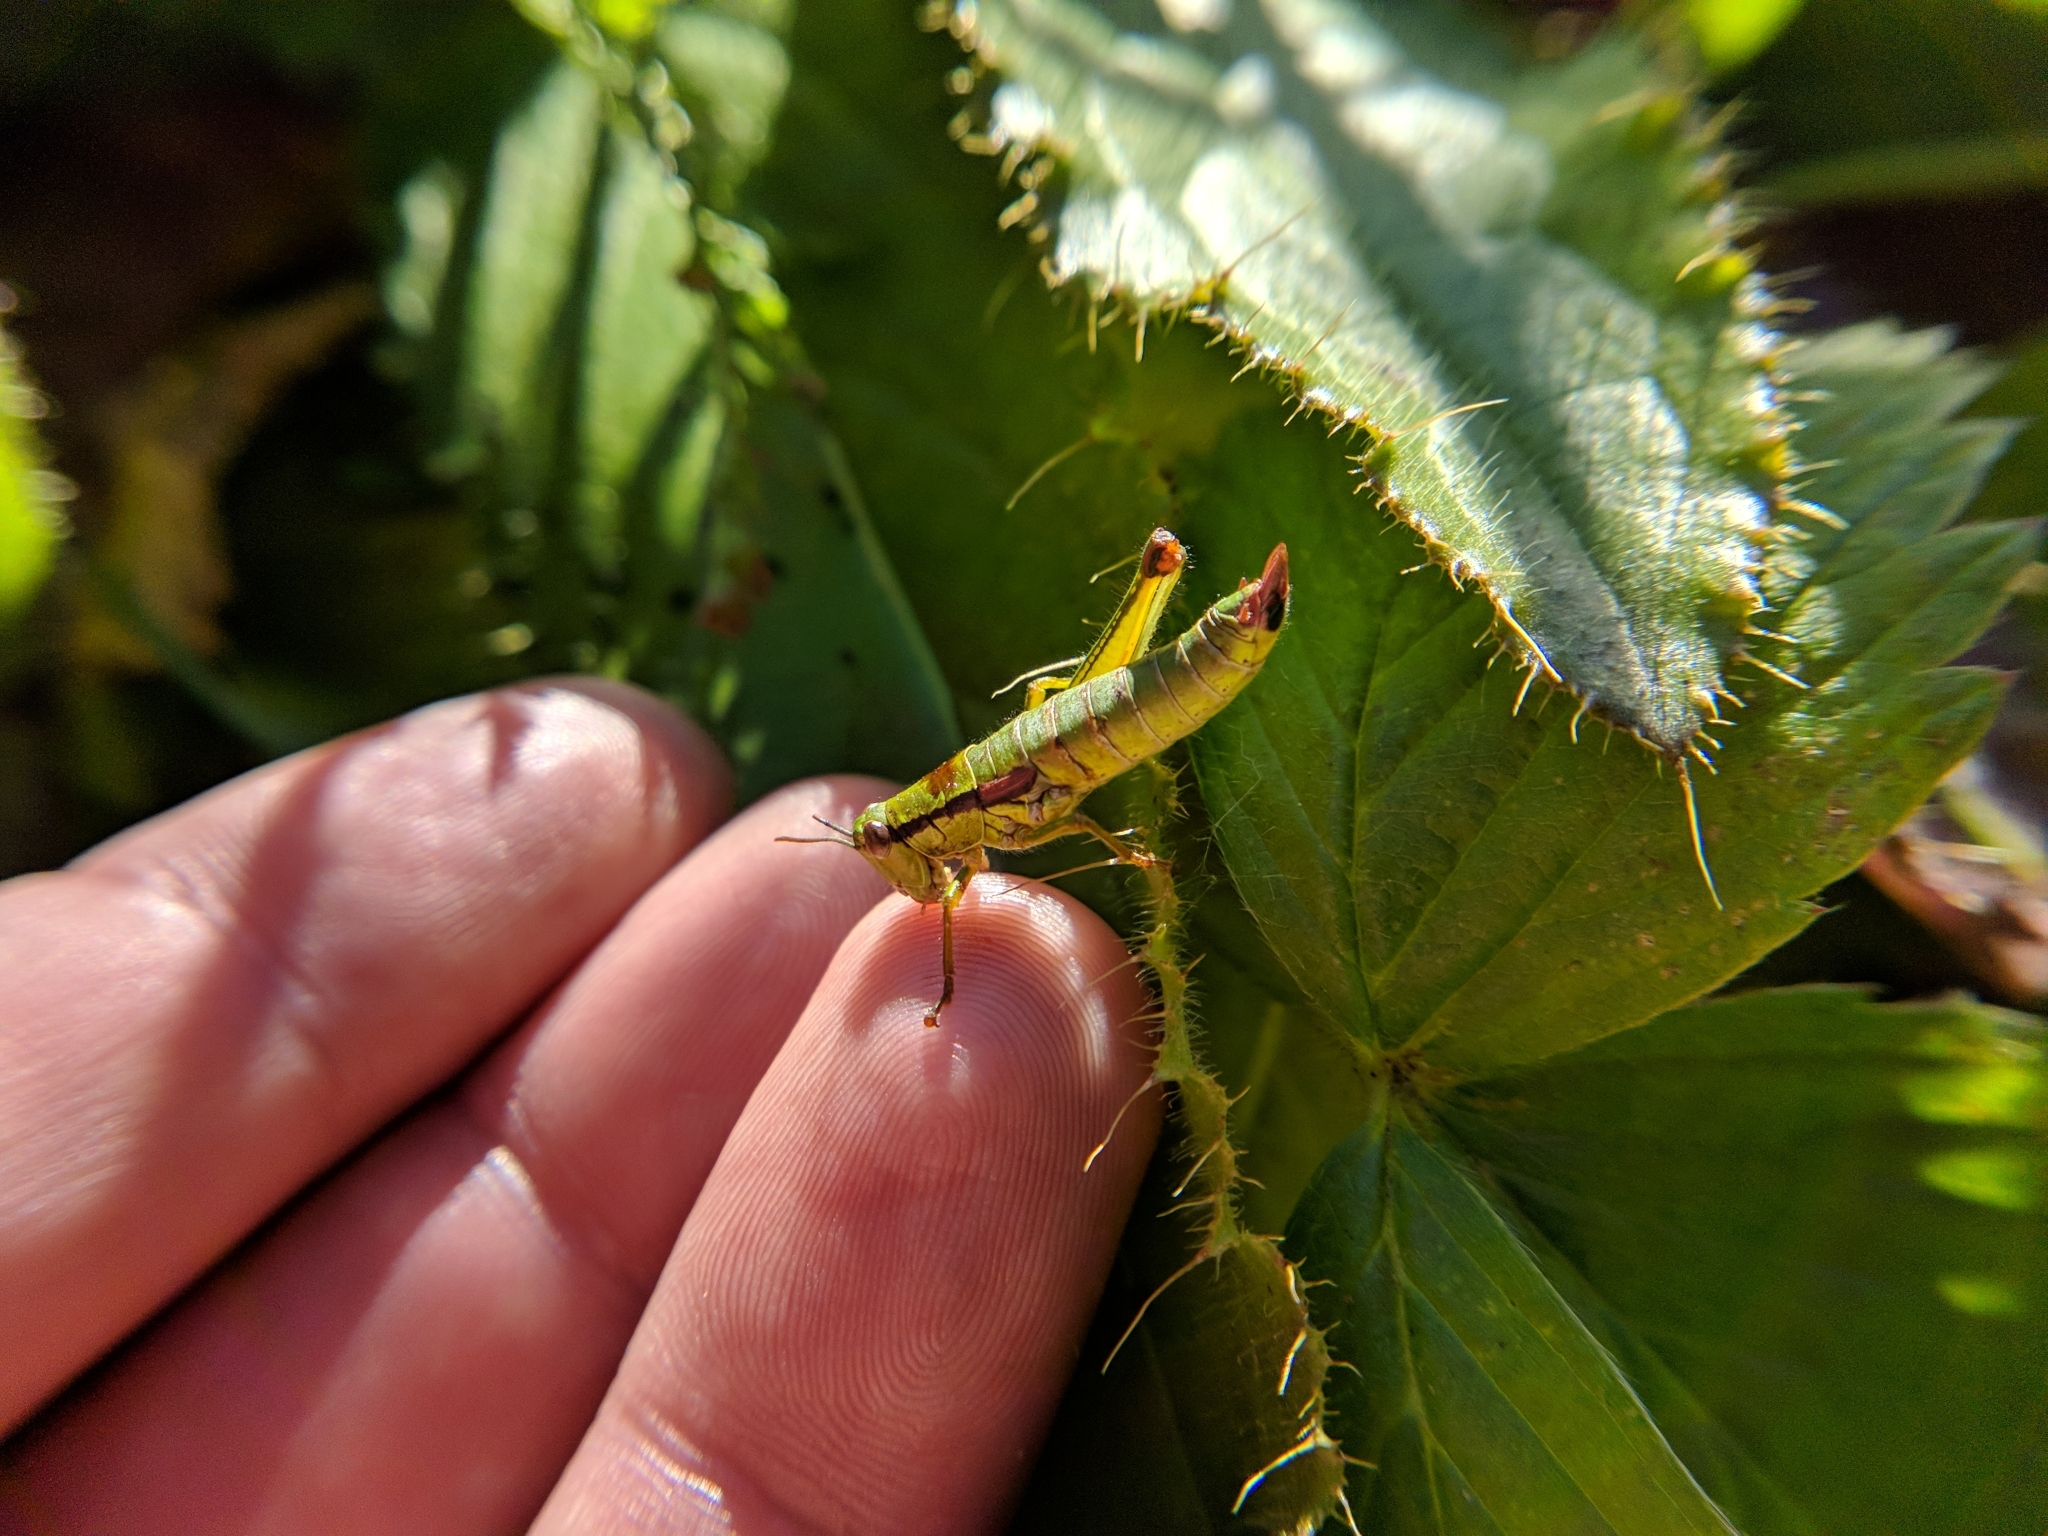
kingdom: Animalia
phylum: Arthropoda
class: Insecta
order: Orthoptera
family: Acrididae
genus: Odontopodisma
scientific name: Odontopodisma schmidtii
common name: Schmidt's mountain grasshopper
